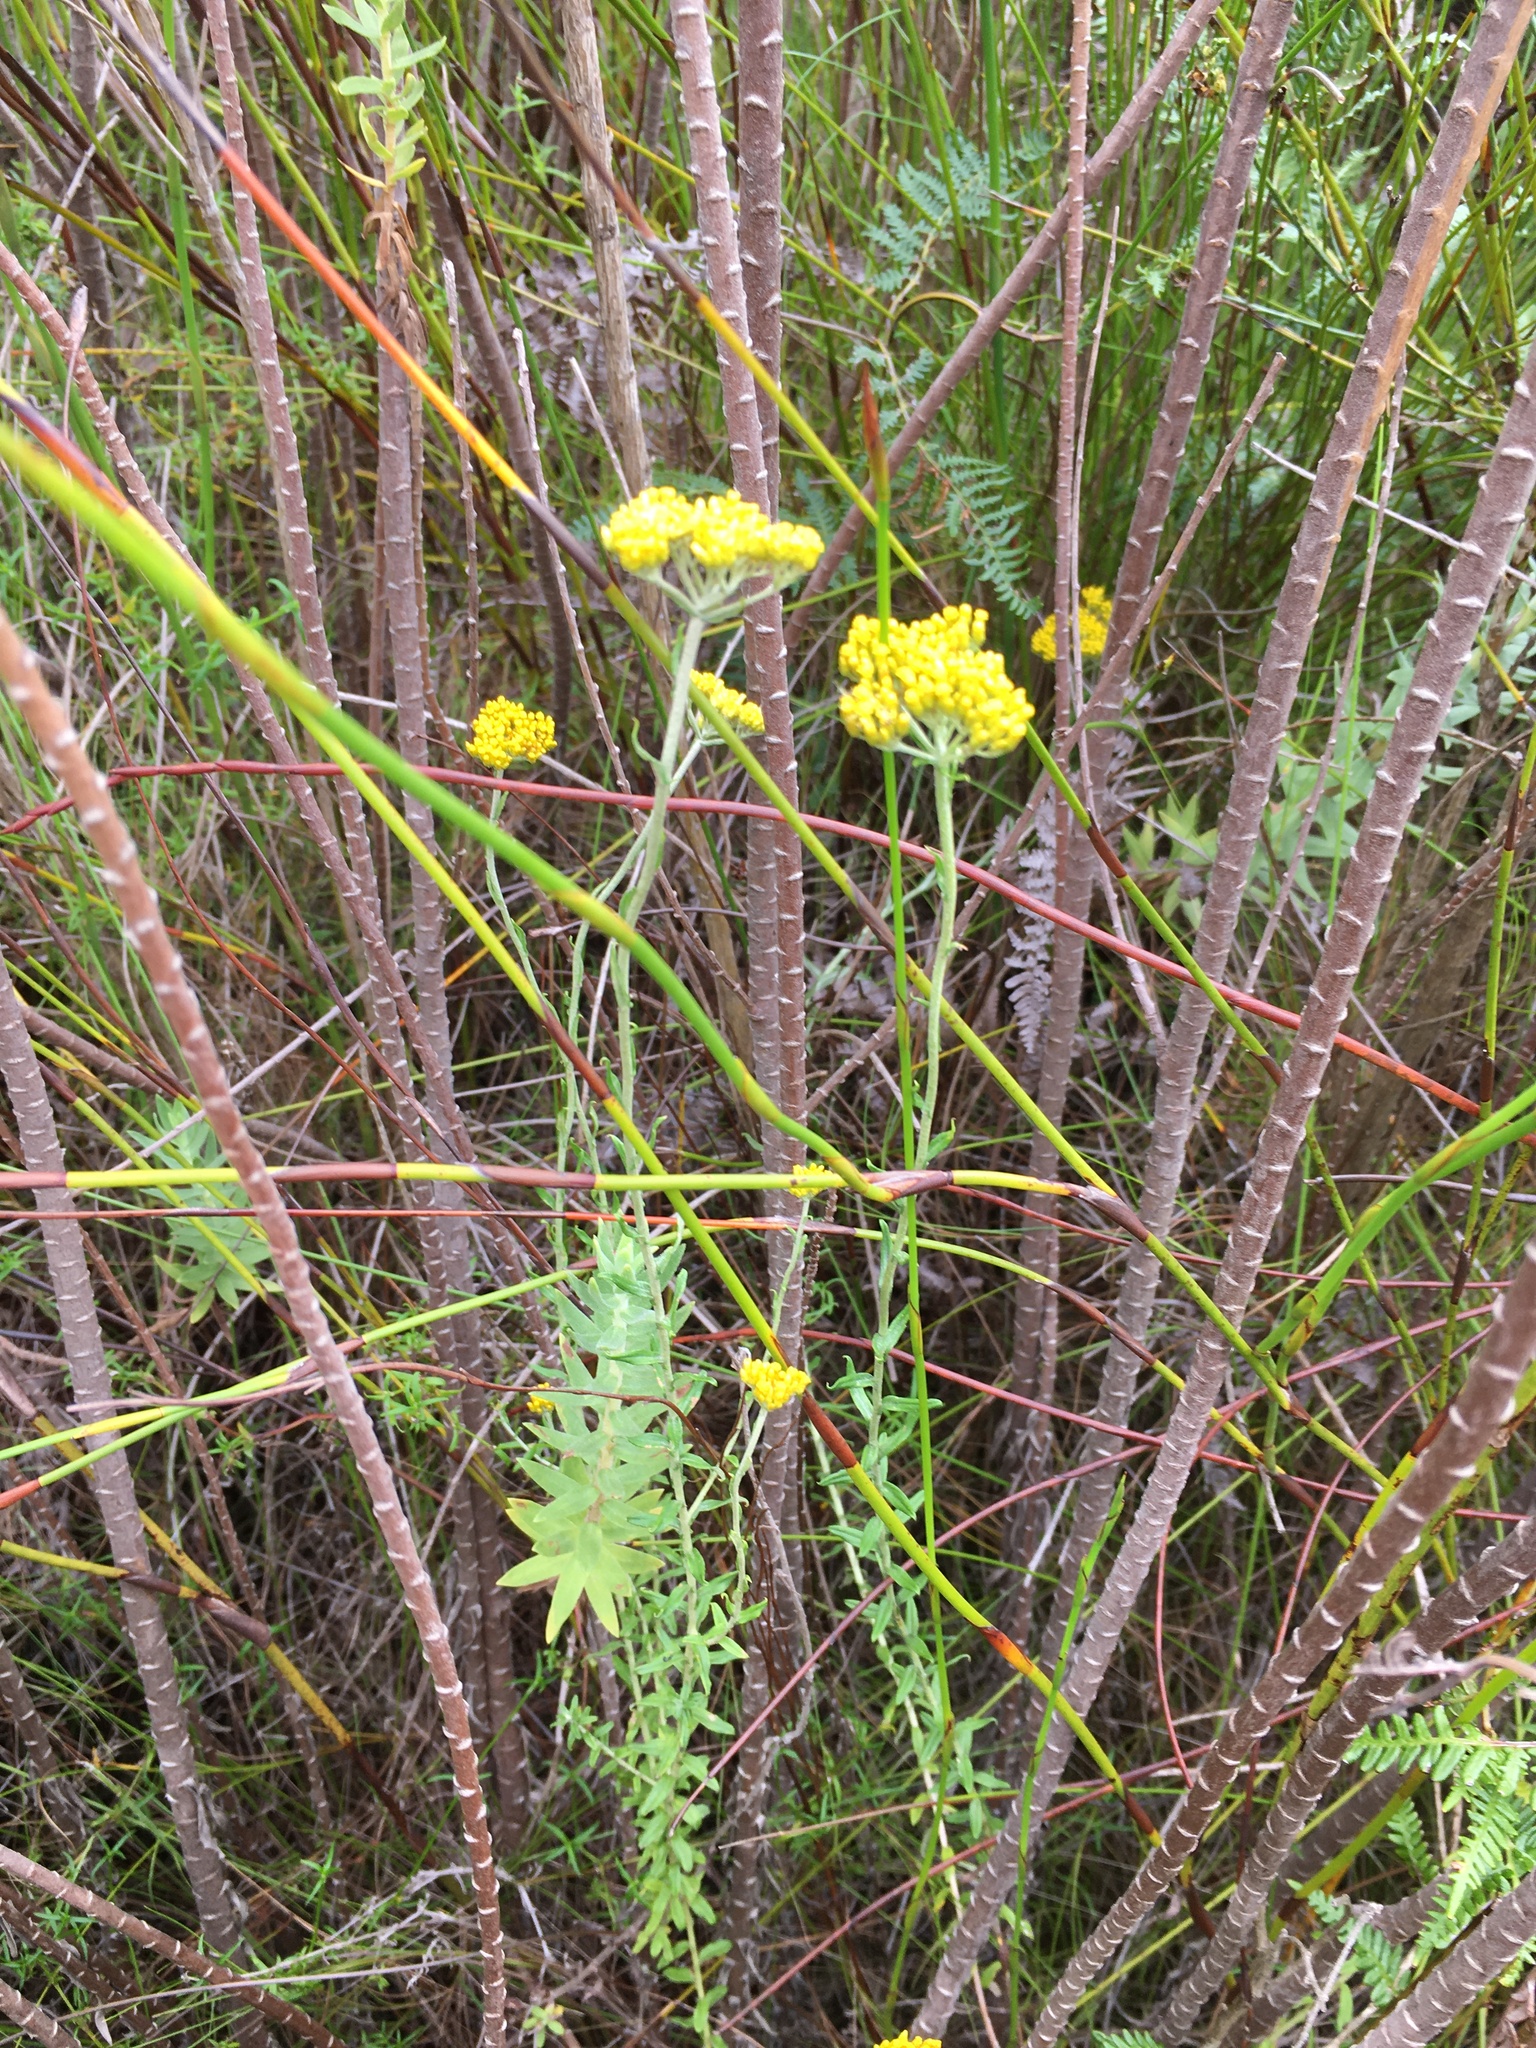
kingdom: Plantae
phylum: Tracheophyta
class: Magnoliopsida
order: Asterales
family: Asteraceae
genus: Helichrysum
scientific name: Helichrysum cymosum
